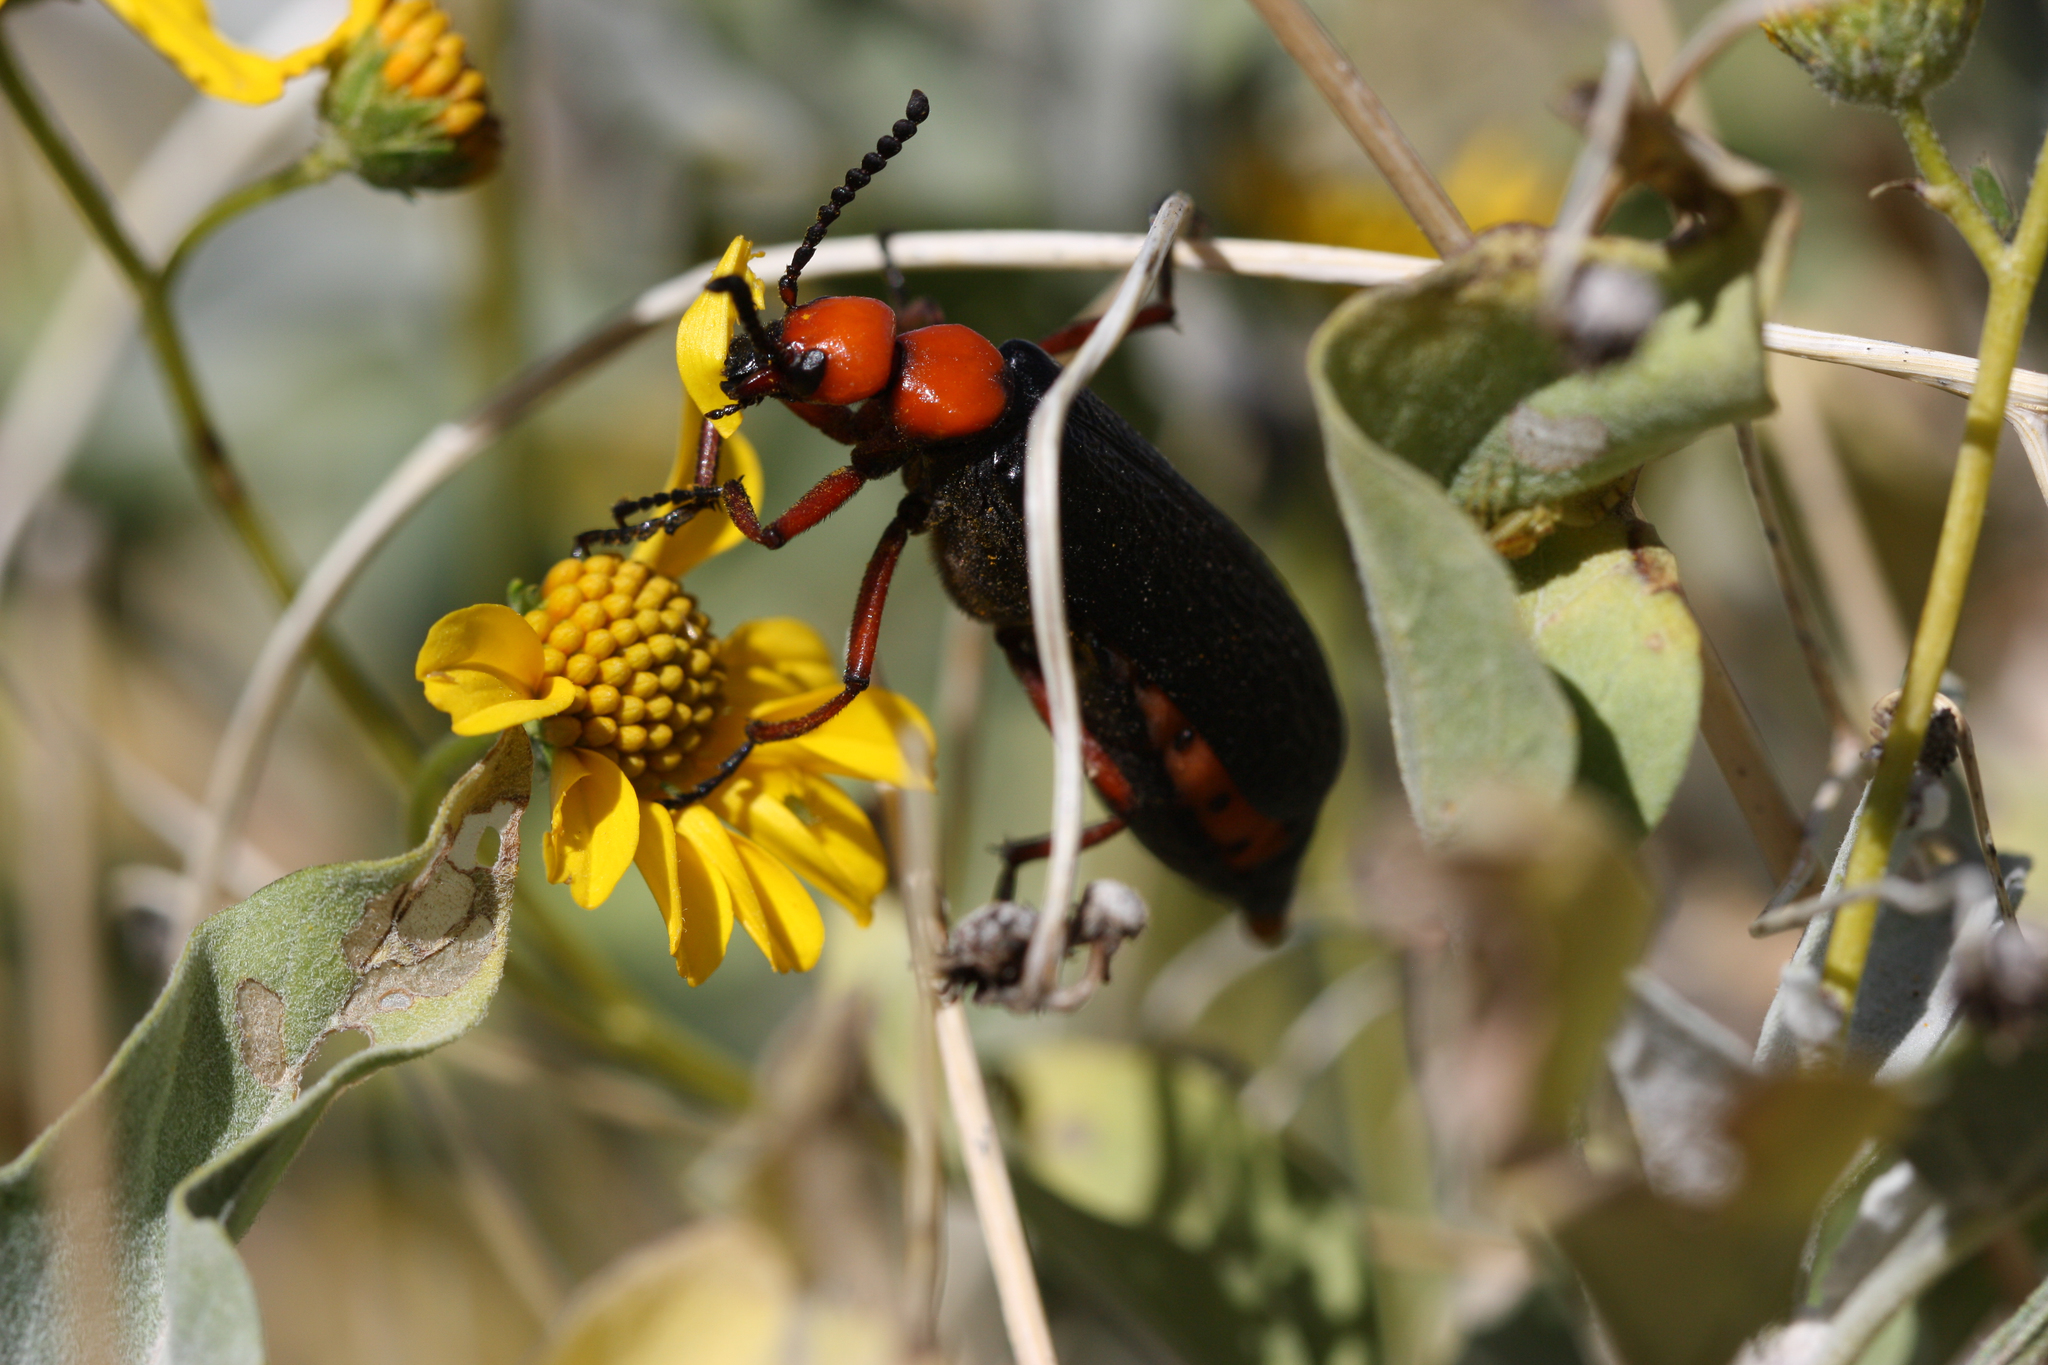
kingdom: Animalia
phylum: Arthropoda
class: Insecta
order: Coleoptera
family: Meloidae
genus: Lytta
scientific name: Lytta magister
